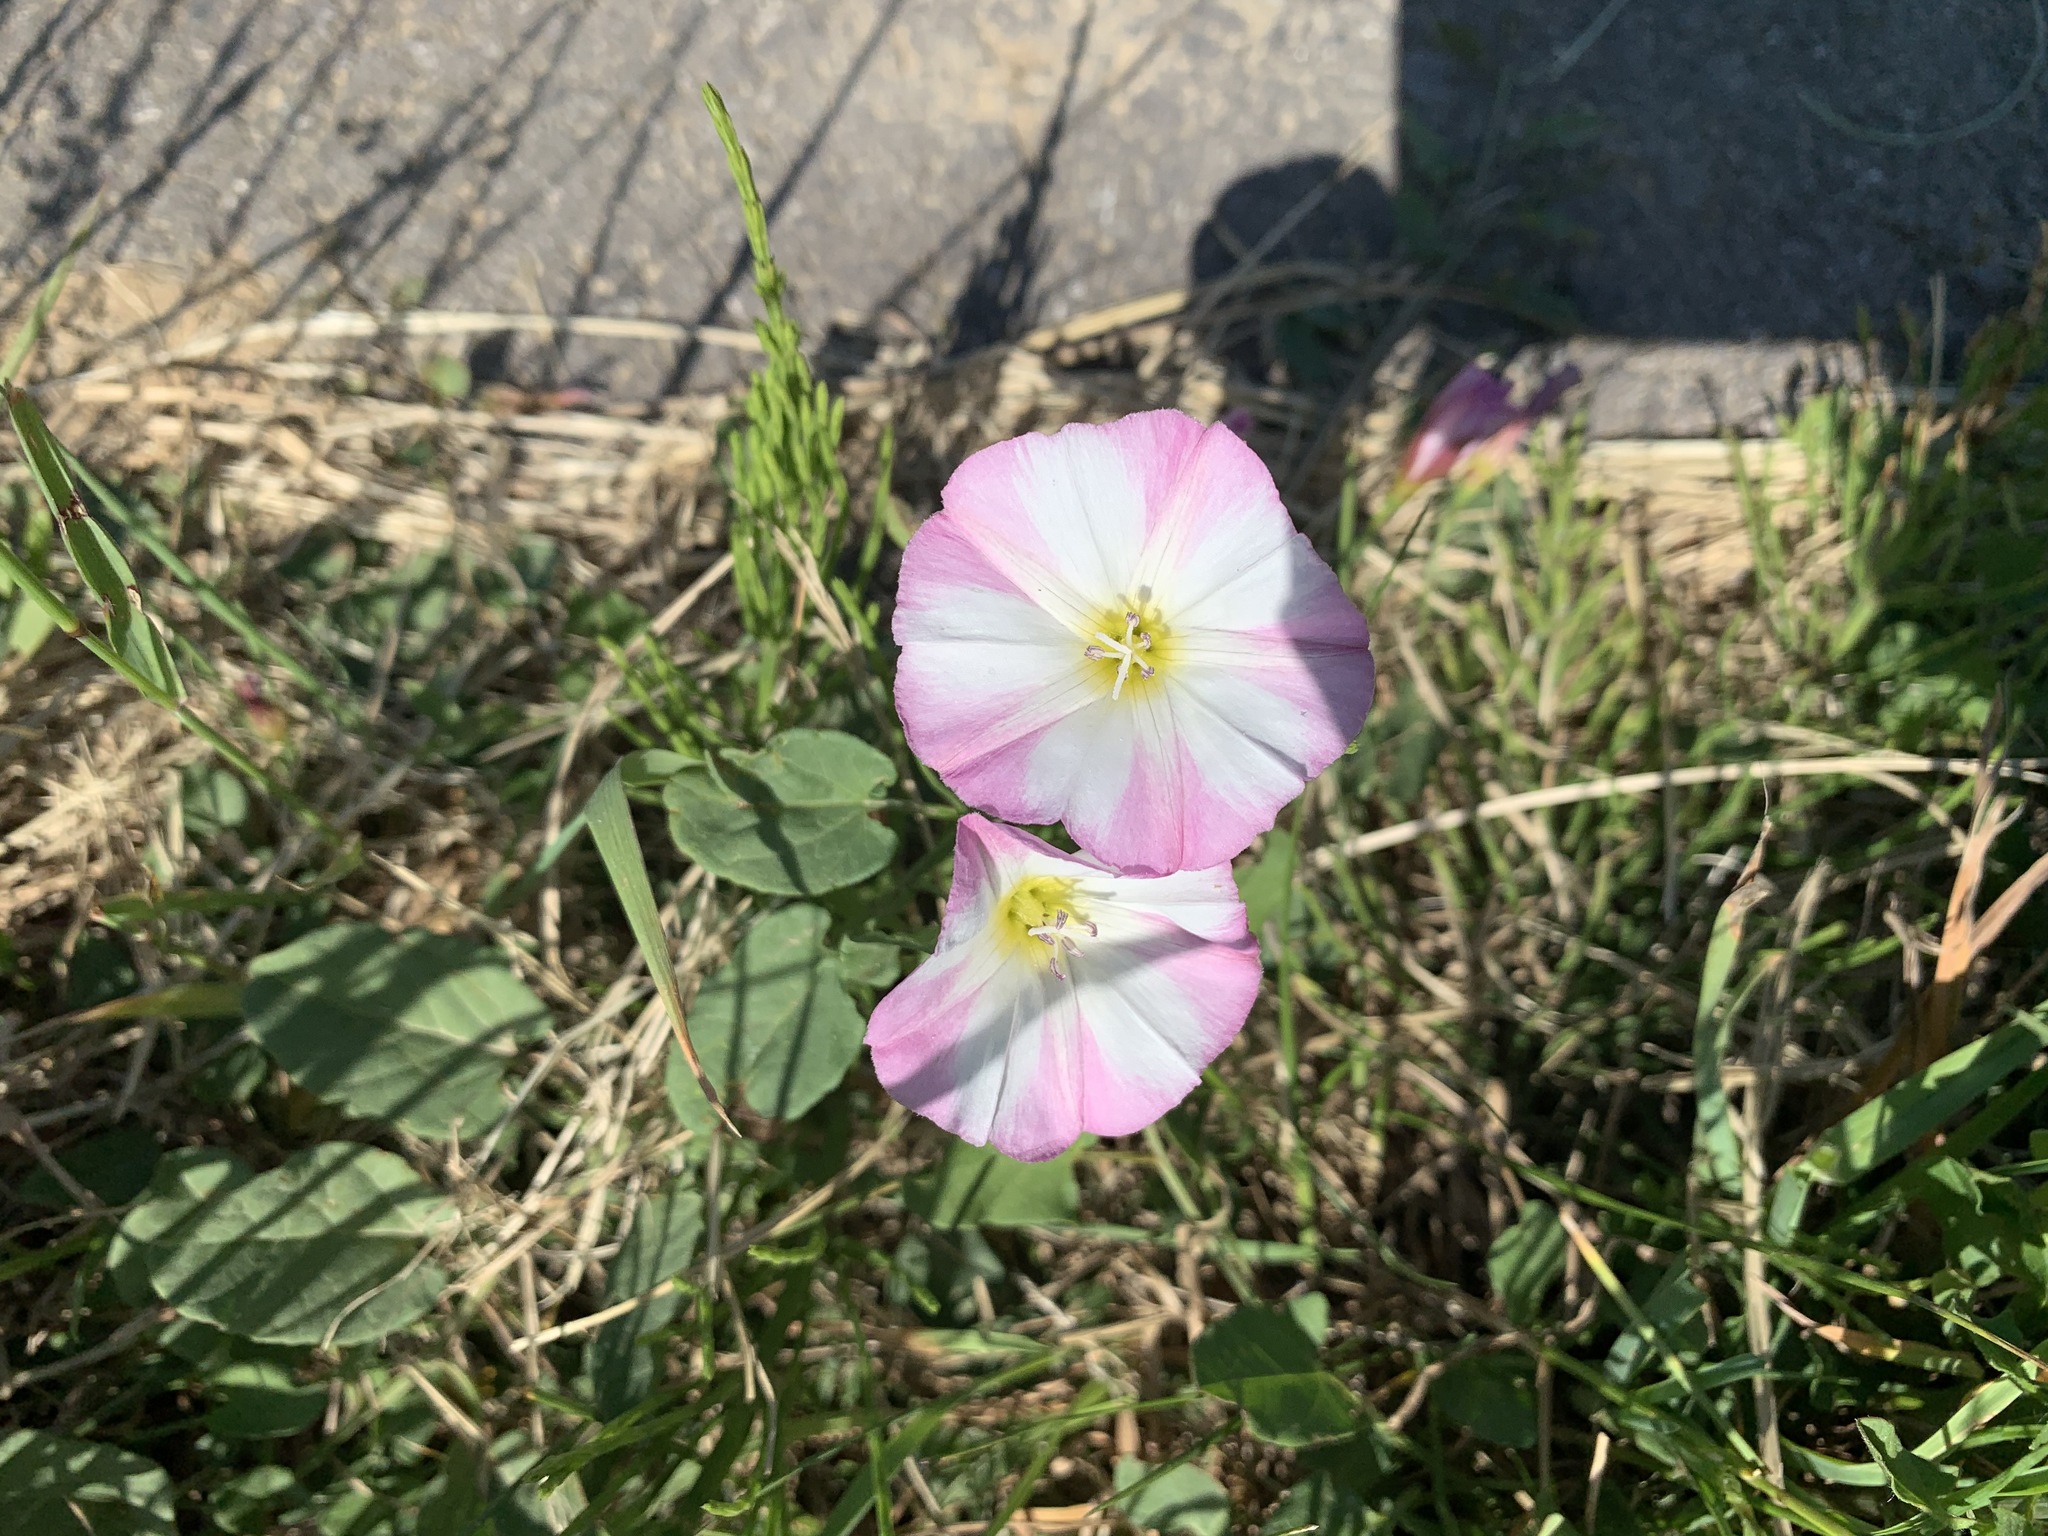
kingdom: Plantae
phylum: Tracheophyta
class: Magnoliopsida
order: Solanales
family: Convolvulaceae
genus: Convolvulus
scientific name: Convolvulus arvensis
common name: Field bindweed
